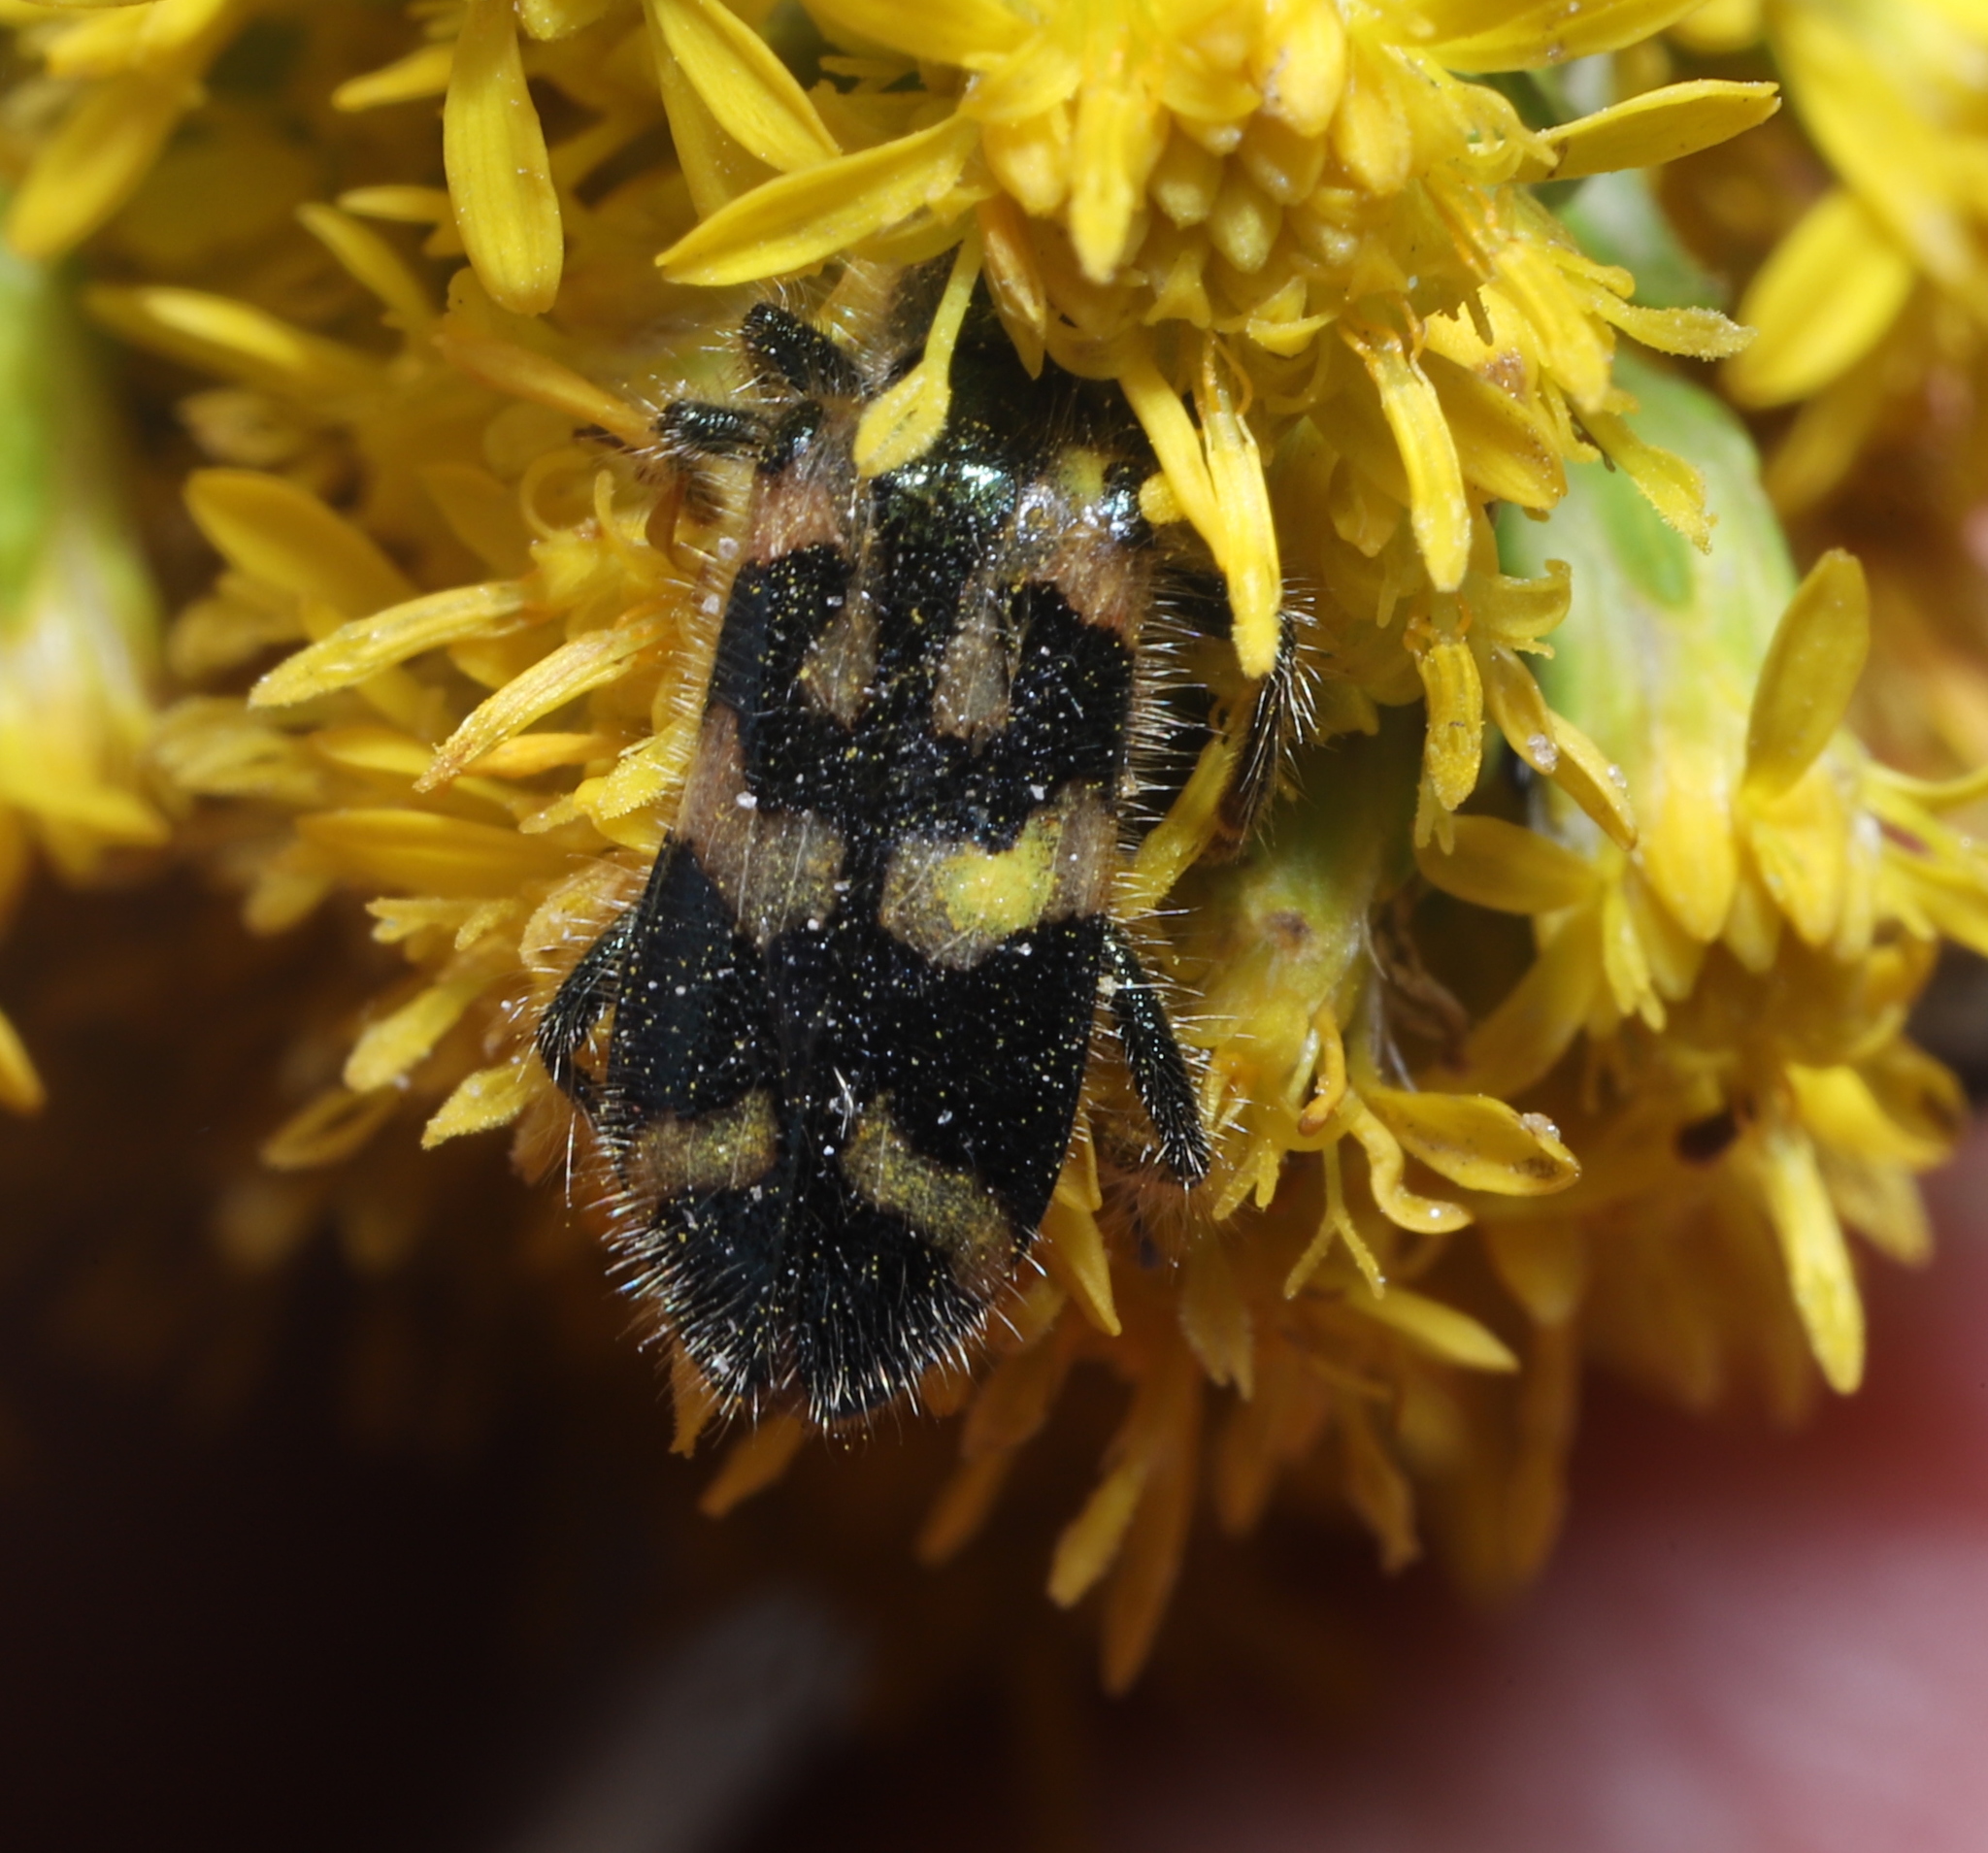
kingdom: Animalia
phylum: Arthropoda
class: Insecta
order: Coleoptera
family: Cleridae
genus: Trichodes
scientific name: Trichodes ornatus
